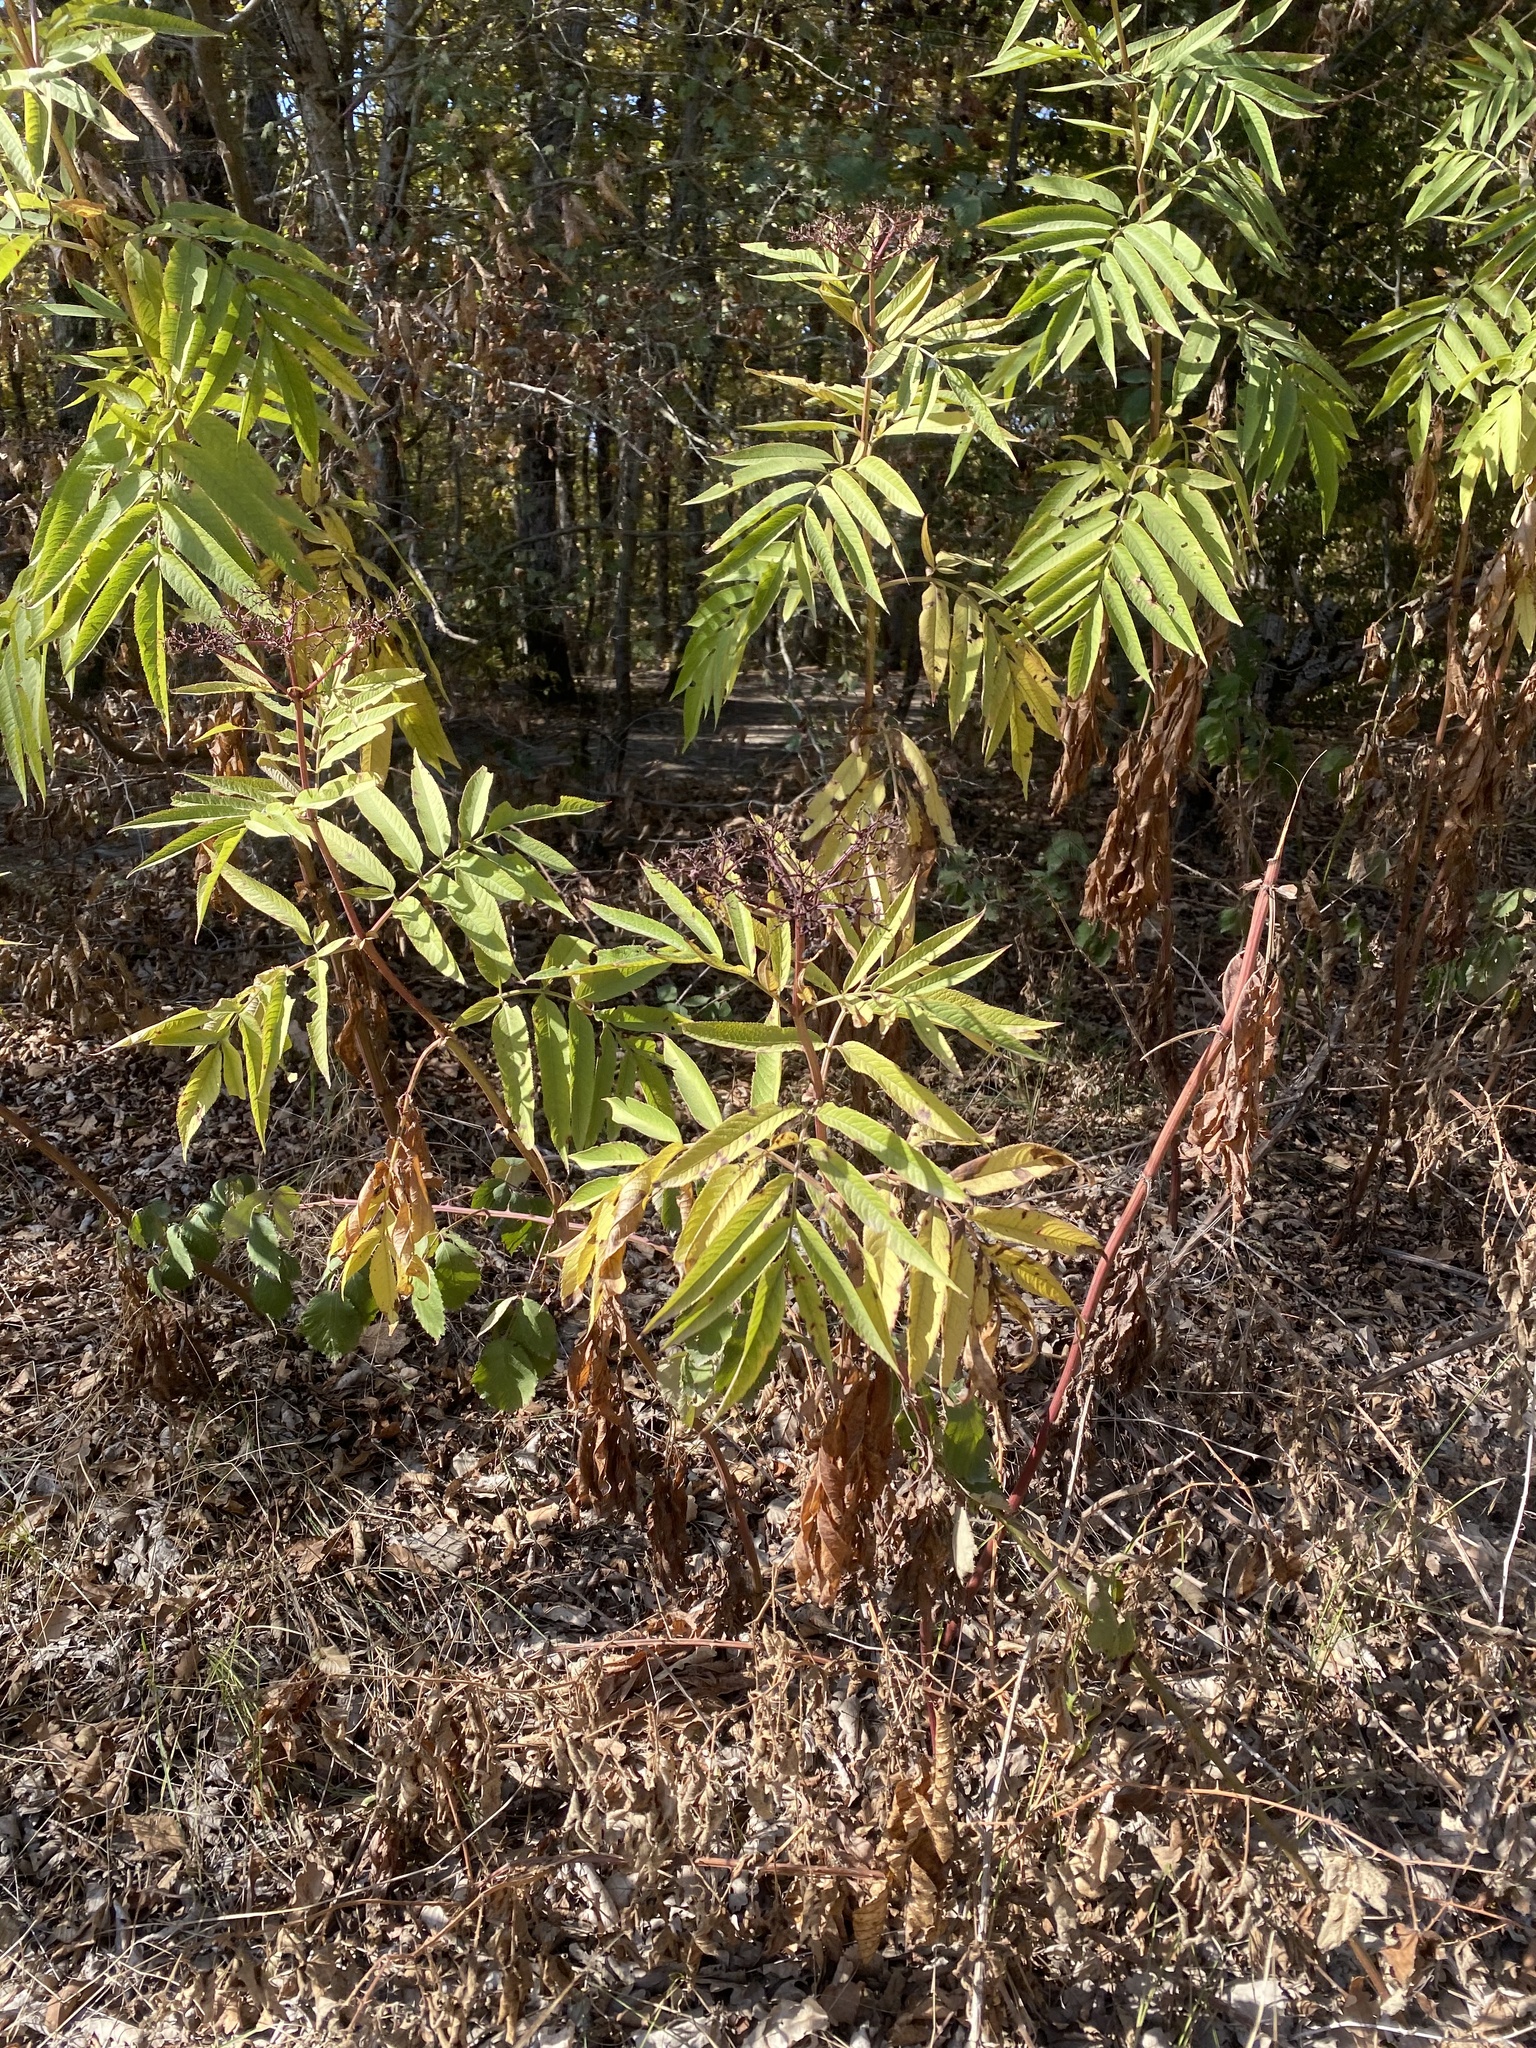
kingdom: Plantae
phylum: Tracheophyta
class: Magnoliopsida
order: Dipsacales
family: Viburnaceae
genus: Sambucus
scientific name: Sambucus ebulus
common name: Dwarf elder
